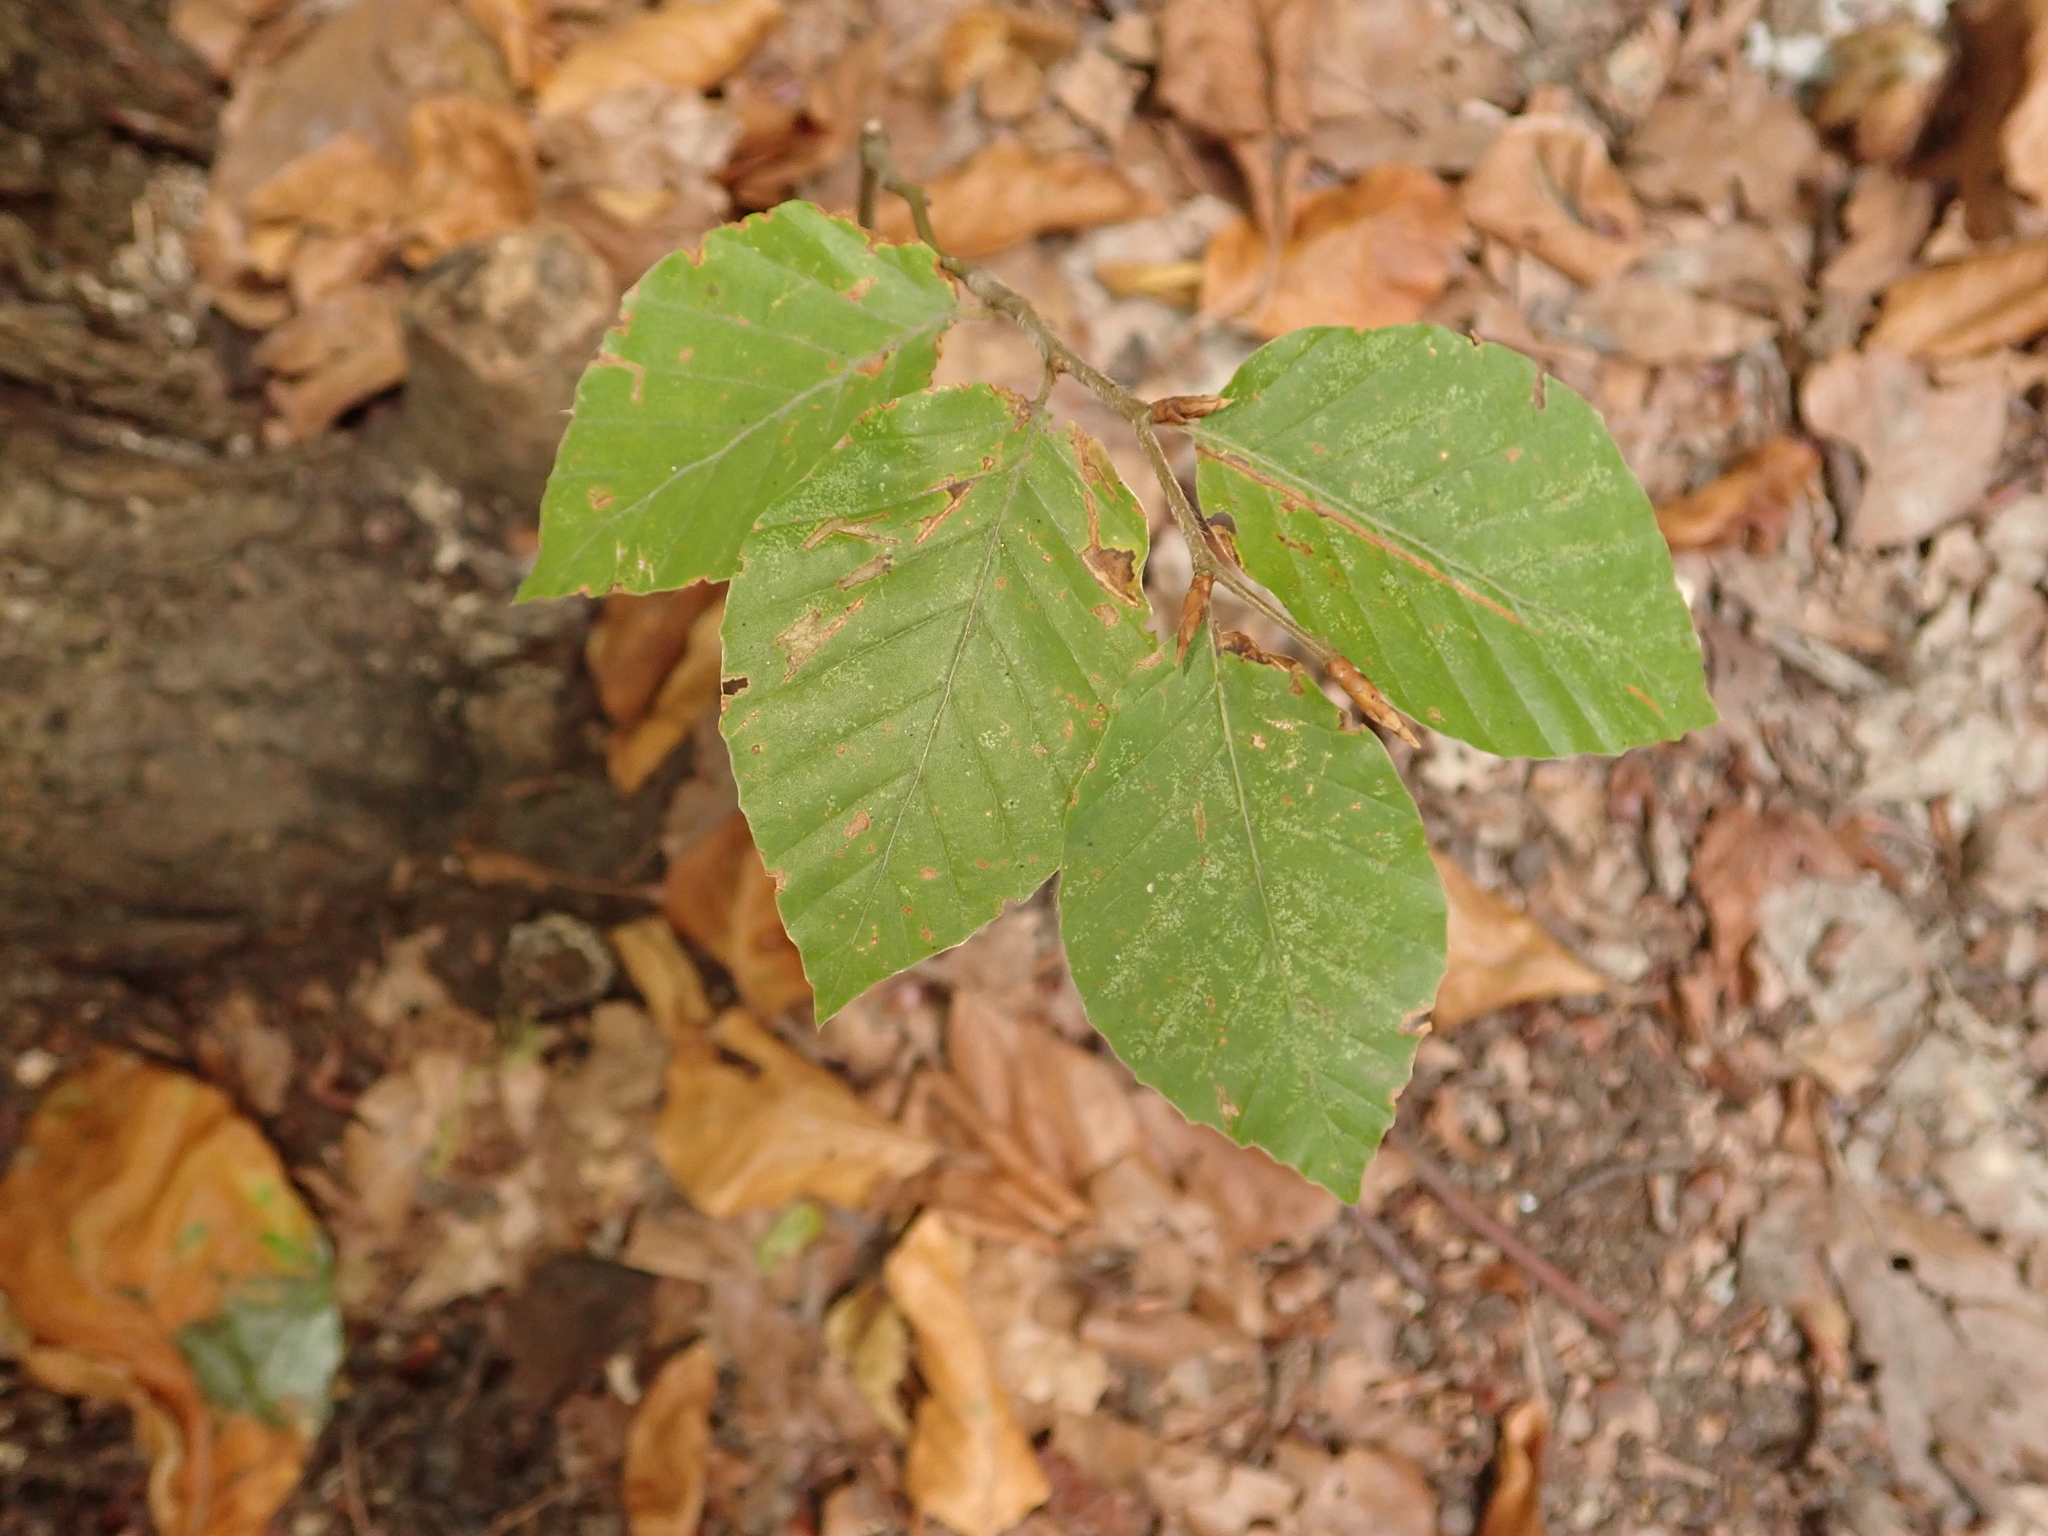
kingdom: Plantae
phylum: Tracheophyta
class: Magnoliopsida
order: Fagales
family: Fagaceae
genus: Fagus
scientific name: Fagus sylvatica
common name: Beech
